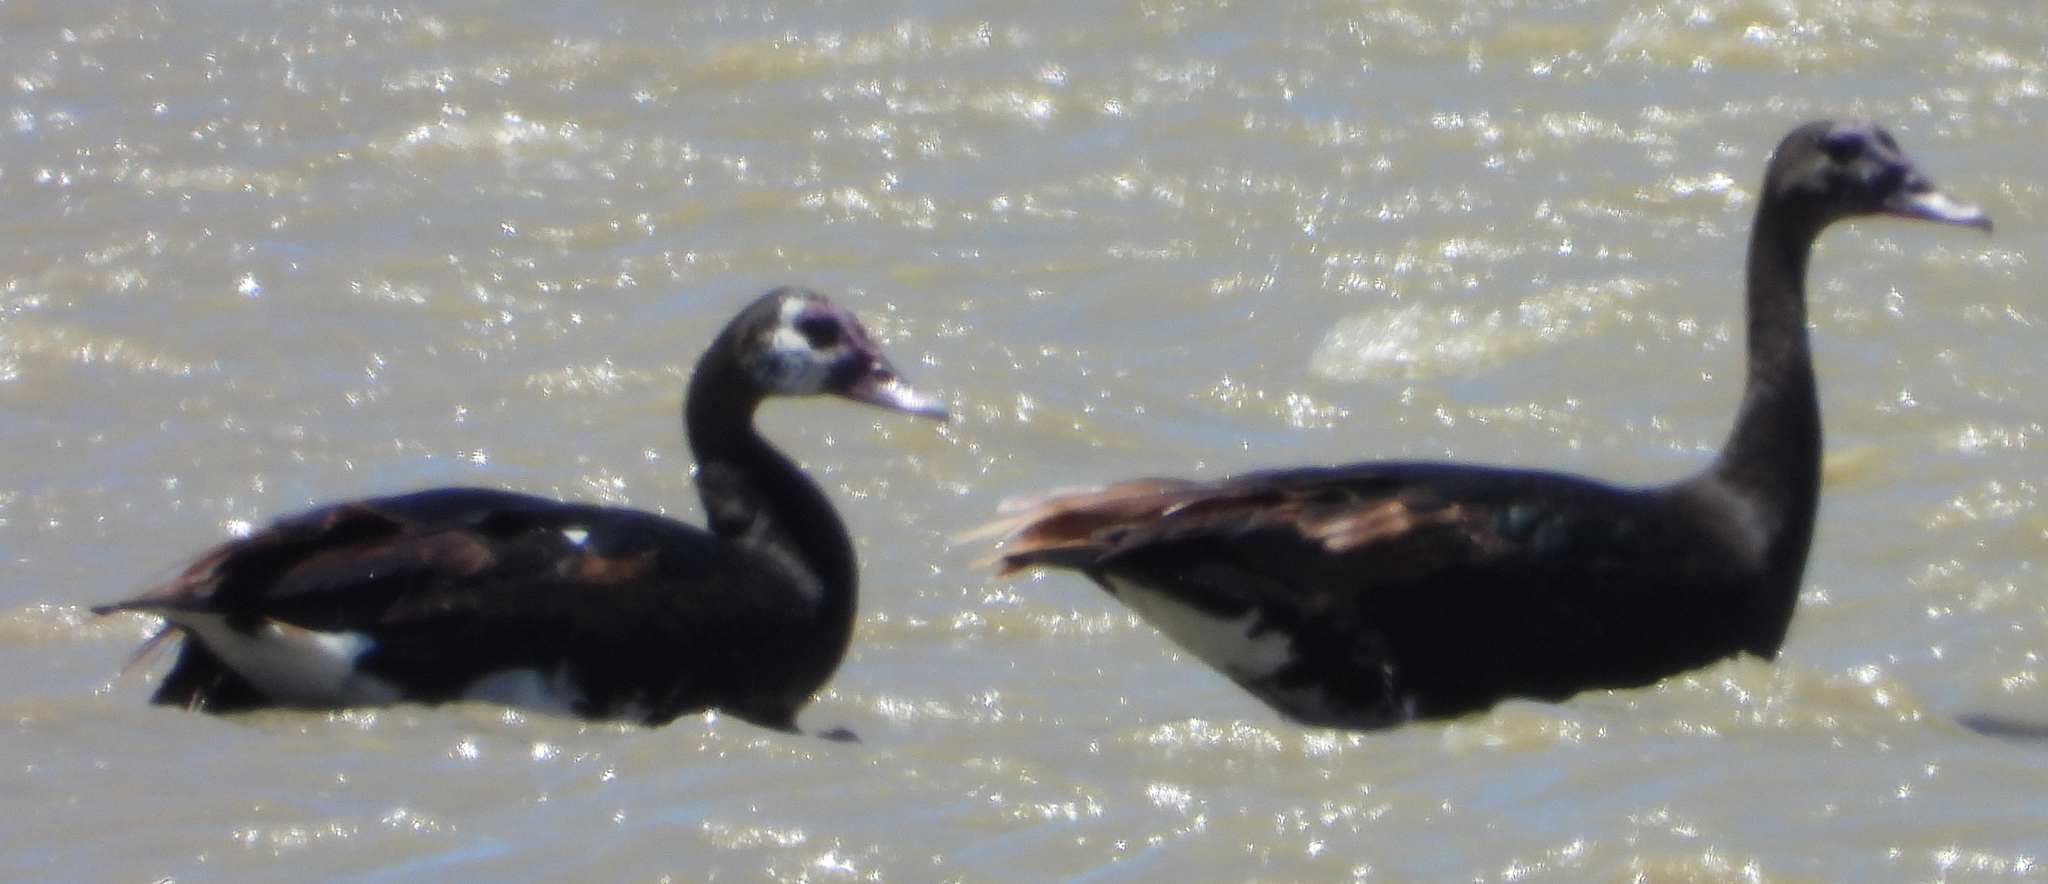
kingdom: Animalia
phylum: Chordata
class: Aves
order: Anseriformes
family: Anatidae
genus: Plectropterus
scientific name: Plectropterus gambensis
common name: Spur-winged goose
